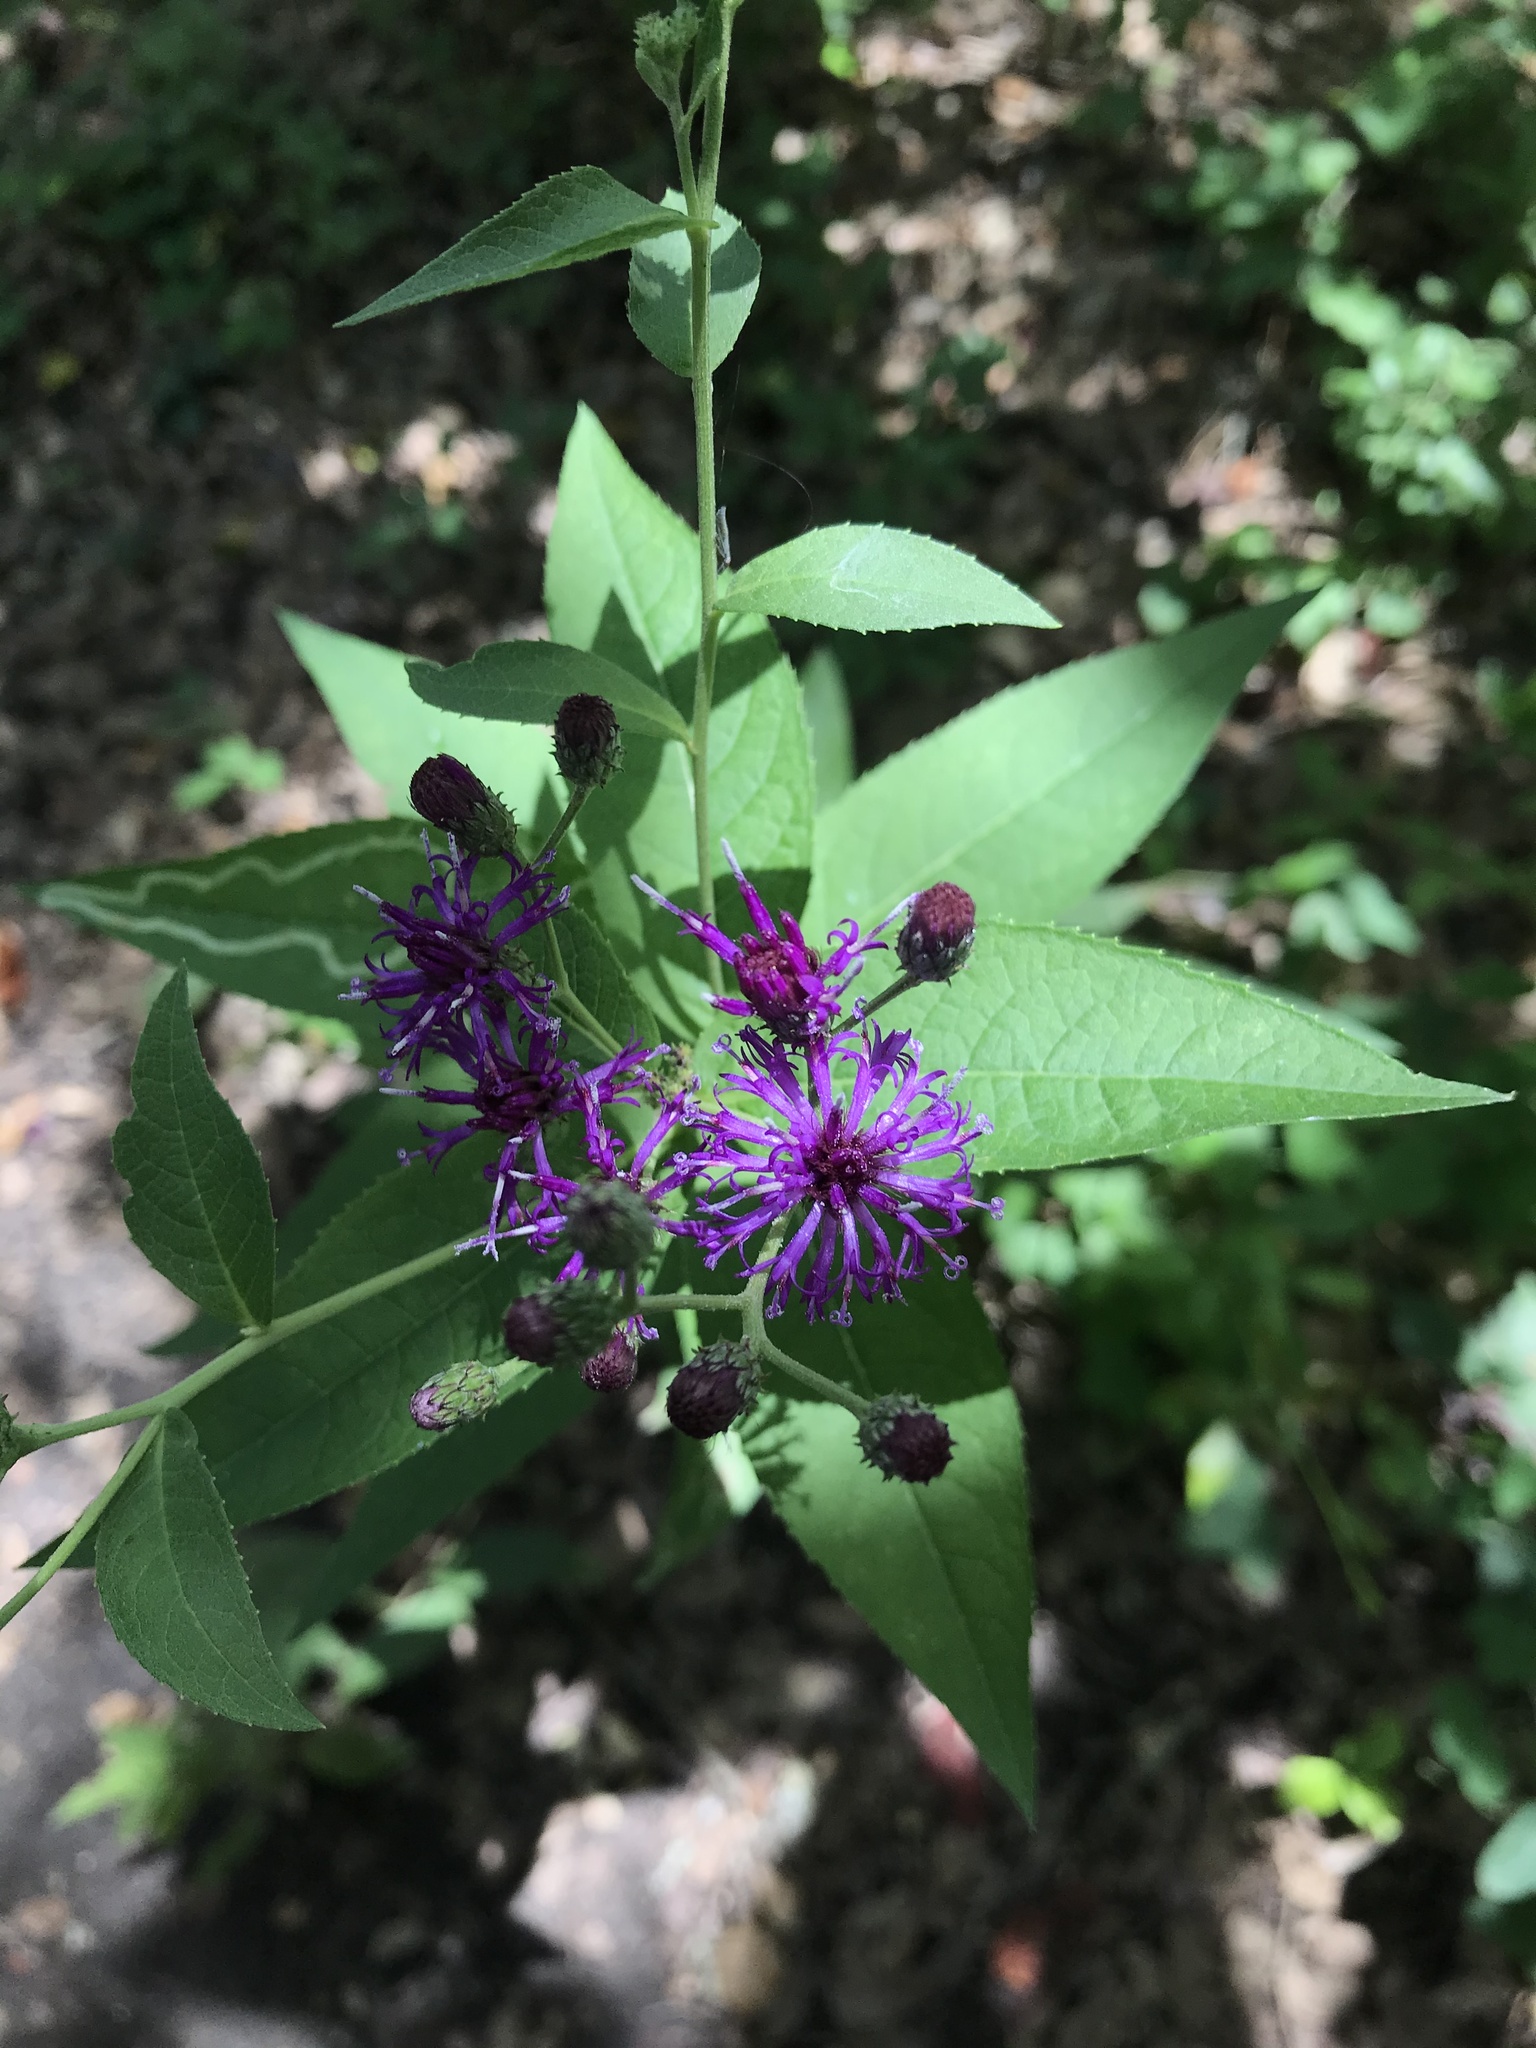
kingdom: Plantae
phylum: Tracheophyta
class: Magnoliopsida
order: Asterales
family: Asteraceae
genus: Vernonia
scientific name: Vernonia baldwinii
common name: Western ironweed
